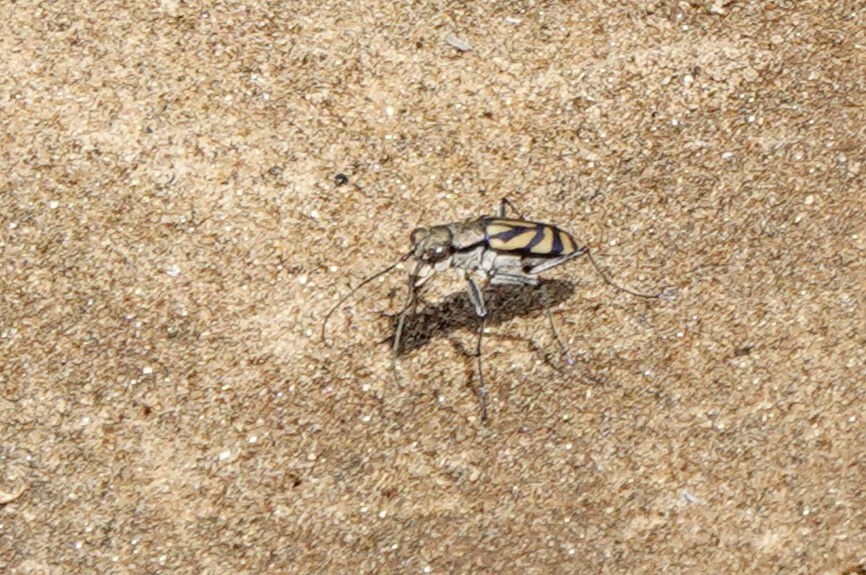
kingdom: Animalia
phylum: Arthropoda
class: Insecta
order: Coleoptera
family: Carabidae
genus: Chaetodera
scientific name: Chaetodera maheva
